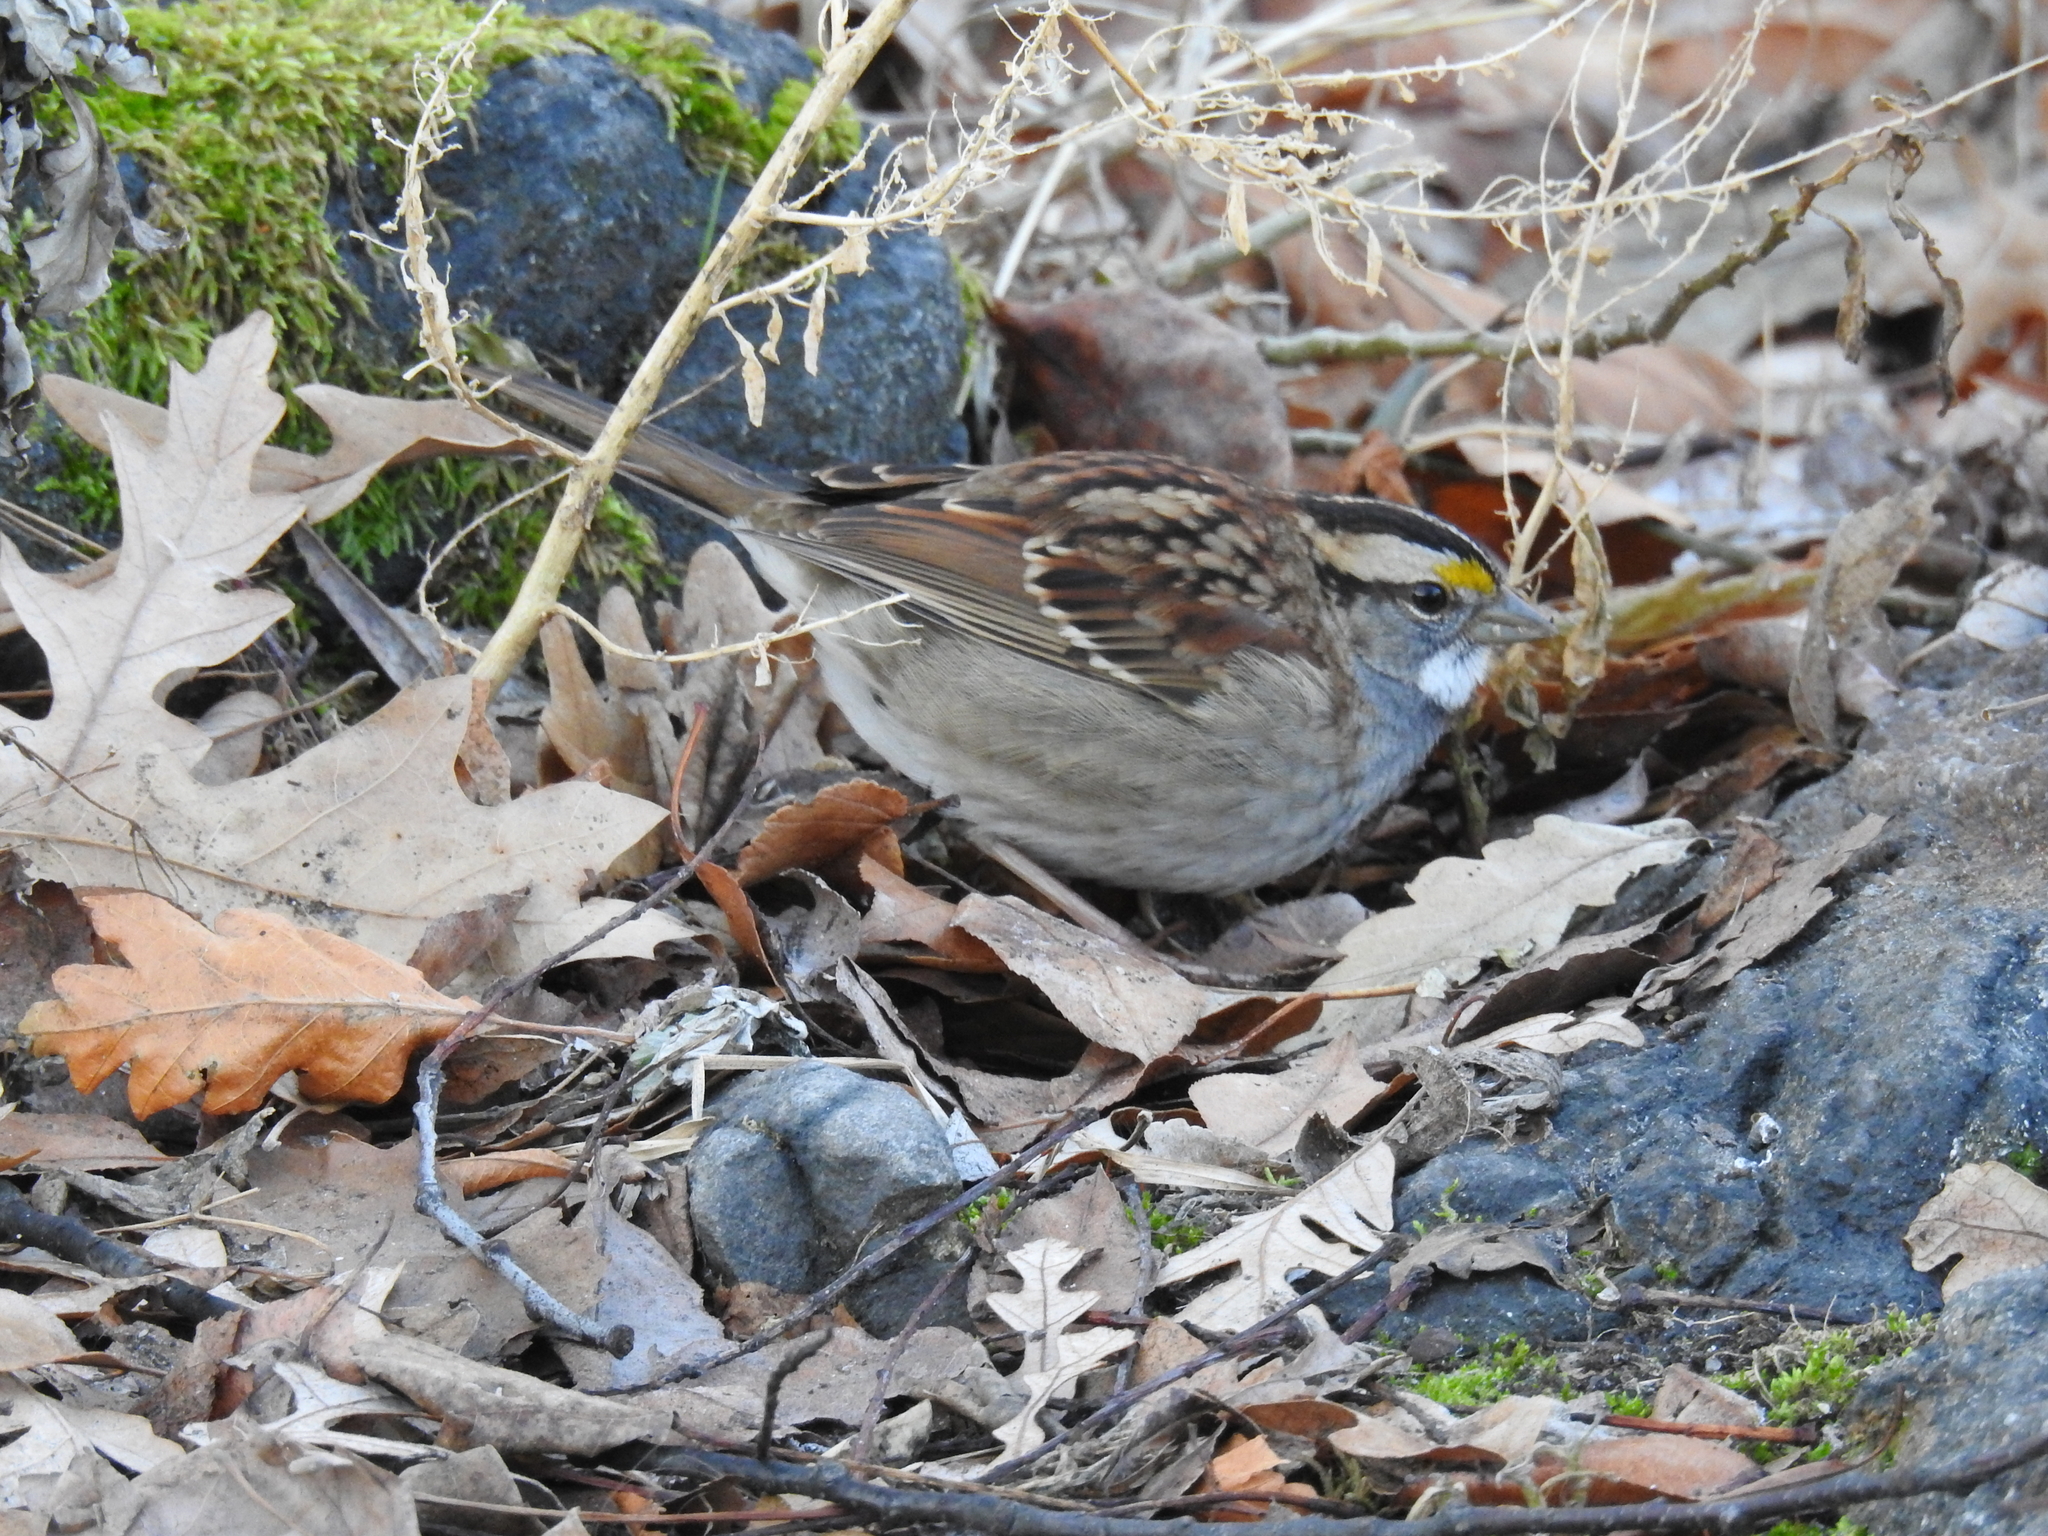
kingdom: Animalia
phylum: Chordata
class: Aves
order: Passeriformes
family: Passerellidae
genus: Zonotrichia
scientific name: Zonotrichia albicollis
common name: White-throated sparrow
